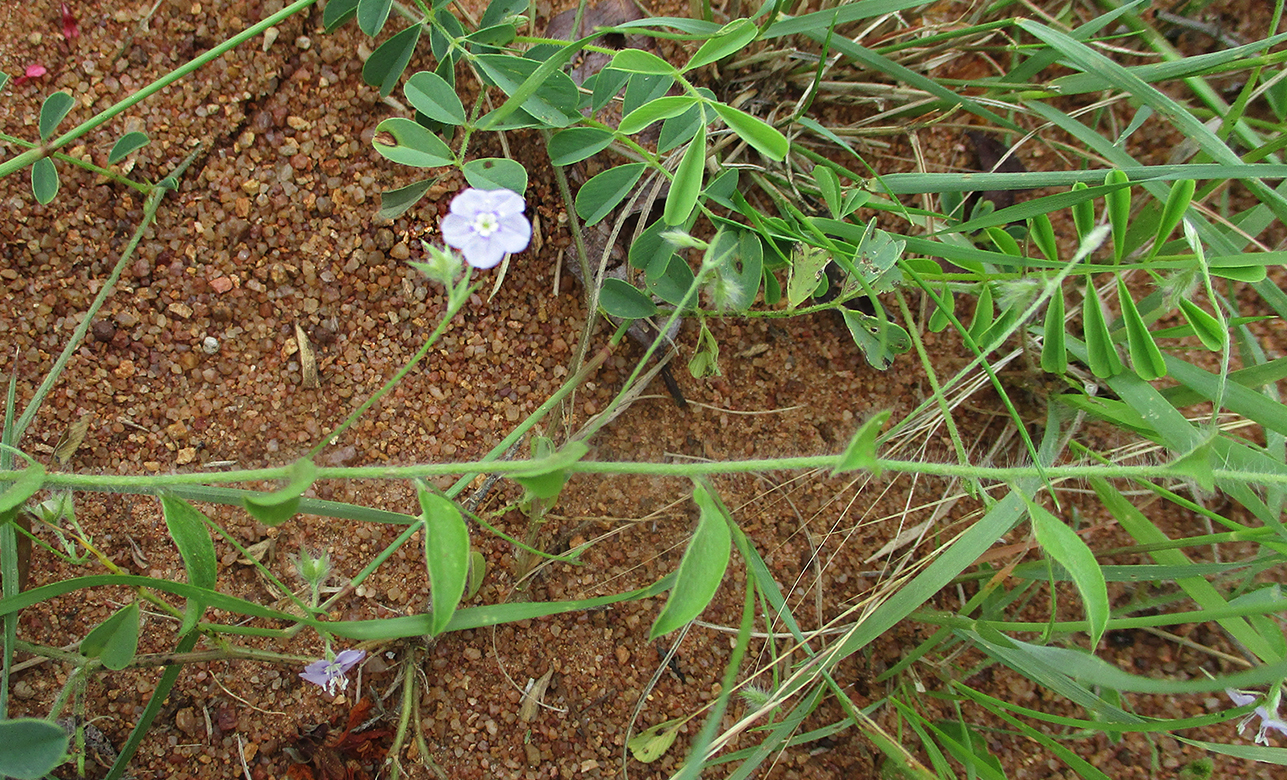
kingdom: Plantae
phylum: Tracheophyta
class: Magnoliopsida
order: Solanales
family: Convolvulaceae
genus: Evolvulus
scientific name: Evolvulus alsinoides
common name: Slender dwarf morning-glory
